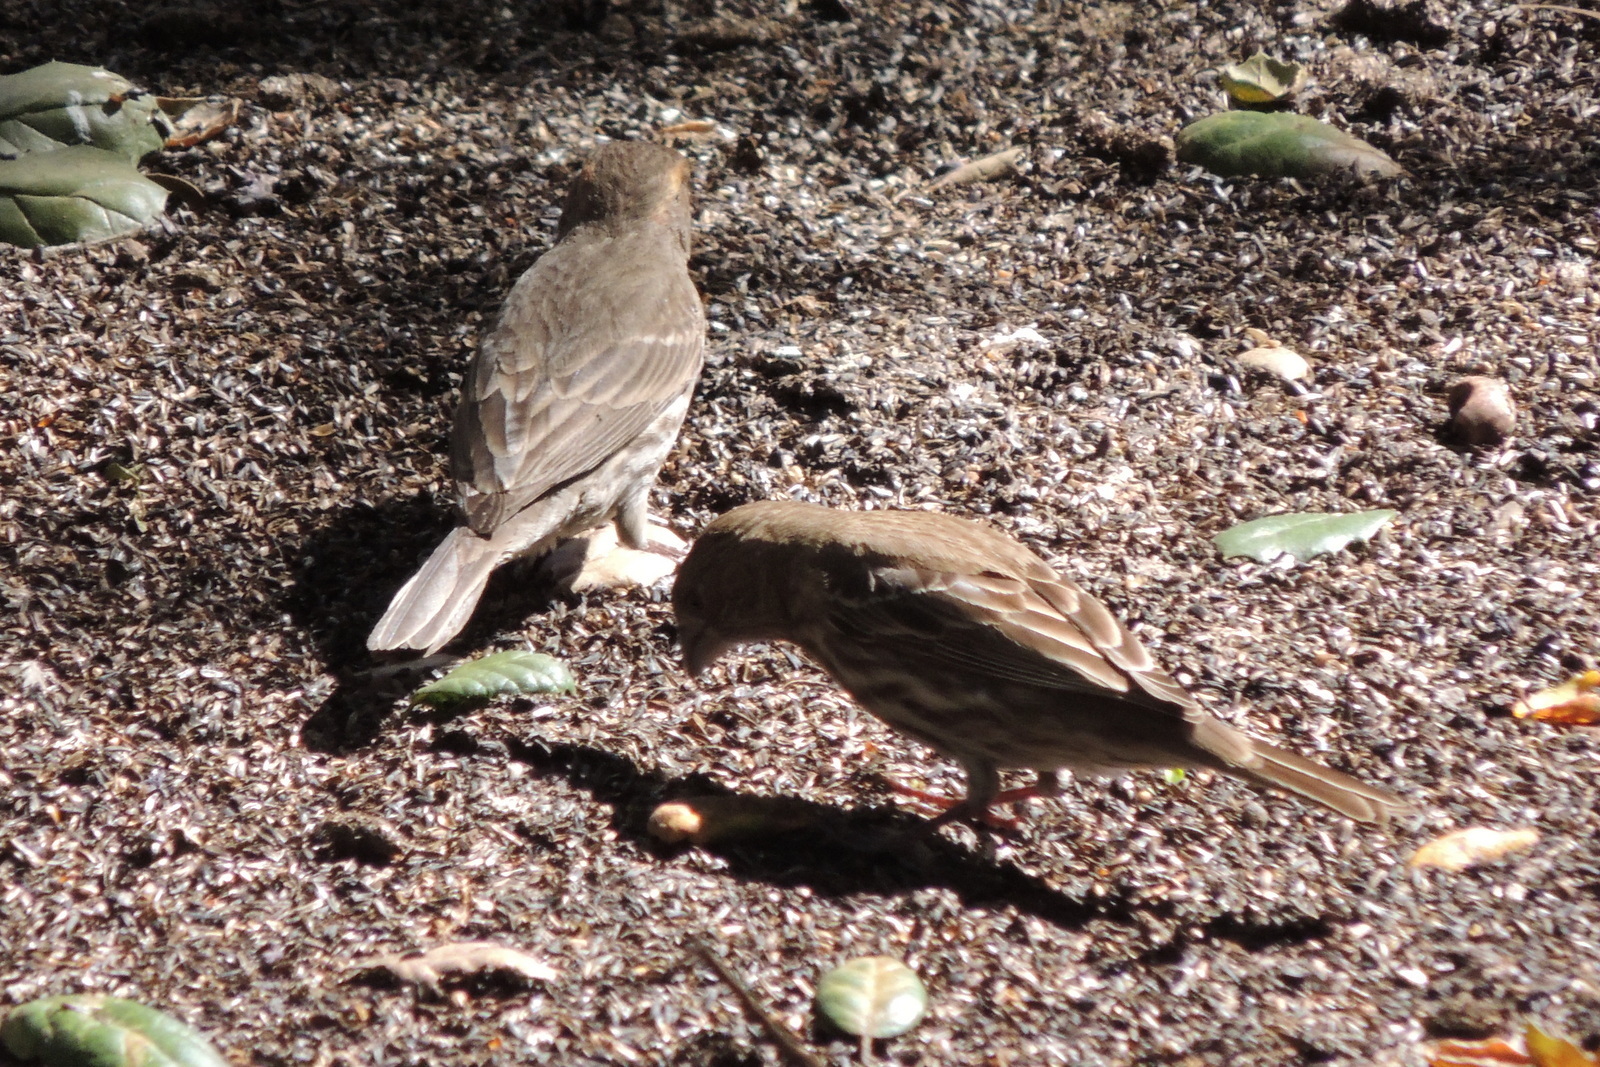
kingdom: Animalia
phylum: Chordata
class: Aves
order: Passeriformes
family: Fringillidae
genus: Haemorhous
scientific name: Haemorhous mexicanus
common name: House finch
